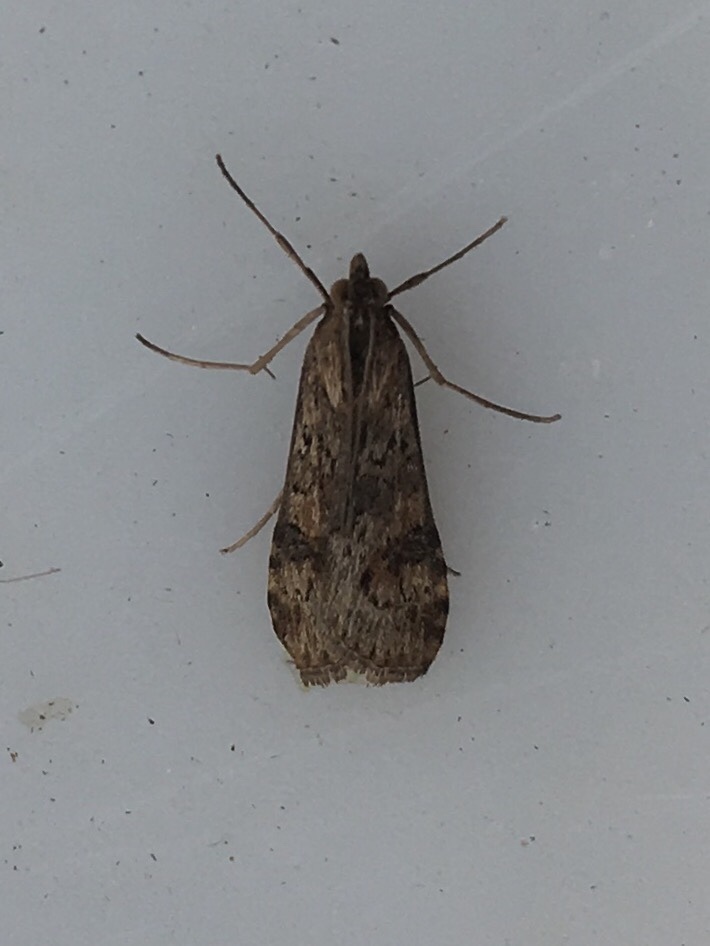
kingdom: Animalia
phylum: Arthropoda
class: Insecta
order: Lepidoptera
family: Crambidae
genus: Nomophila
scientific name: Nomophila nearctica
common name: American rush veneer
